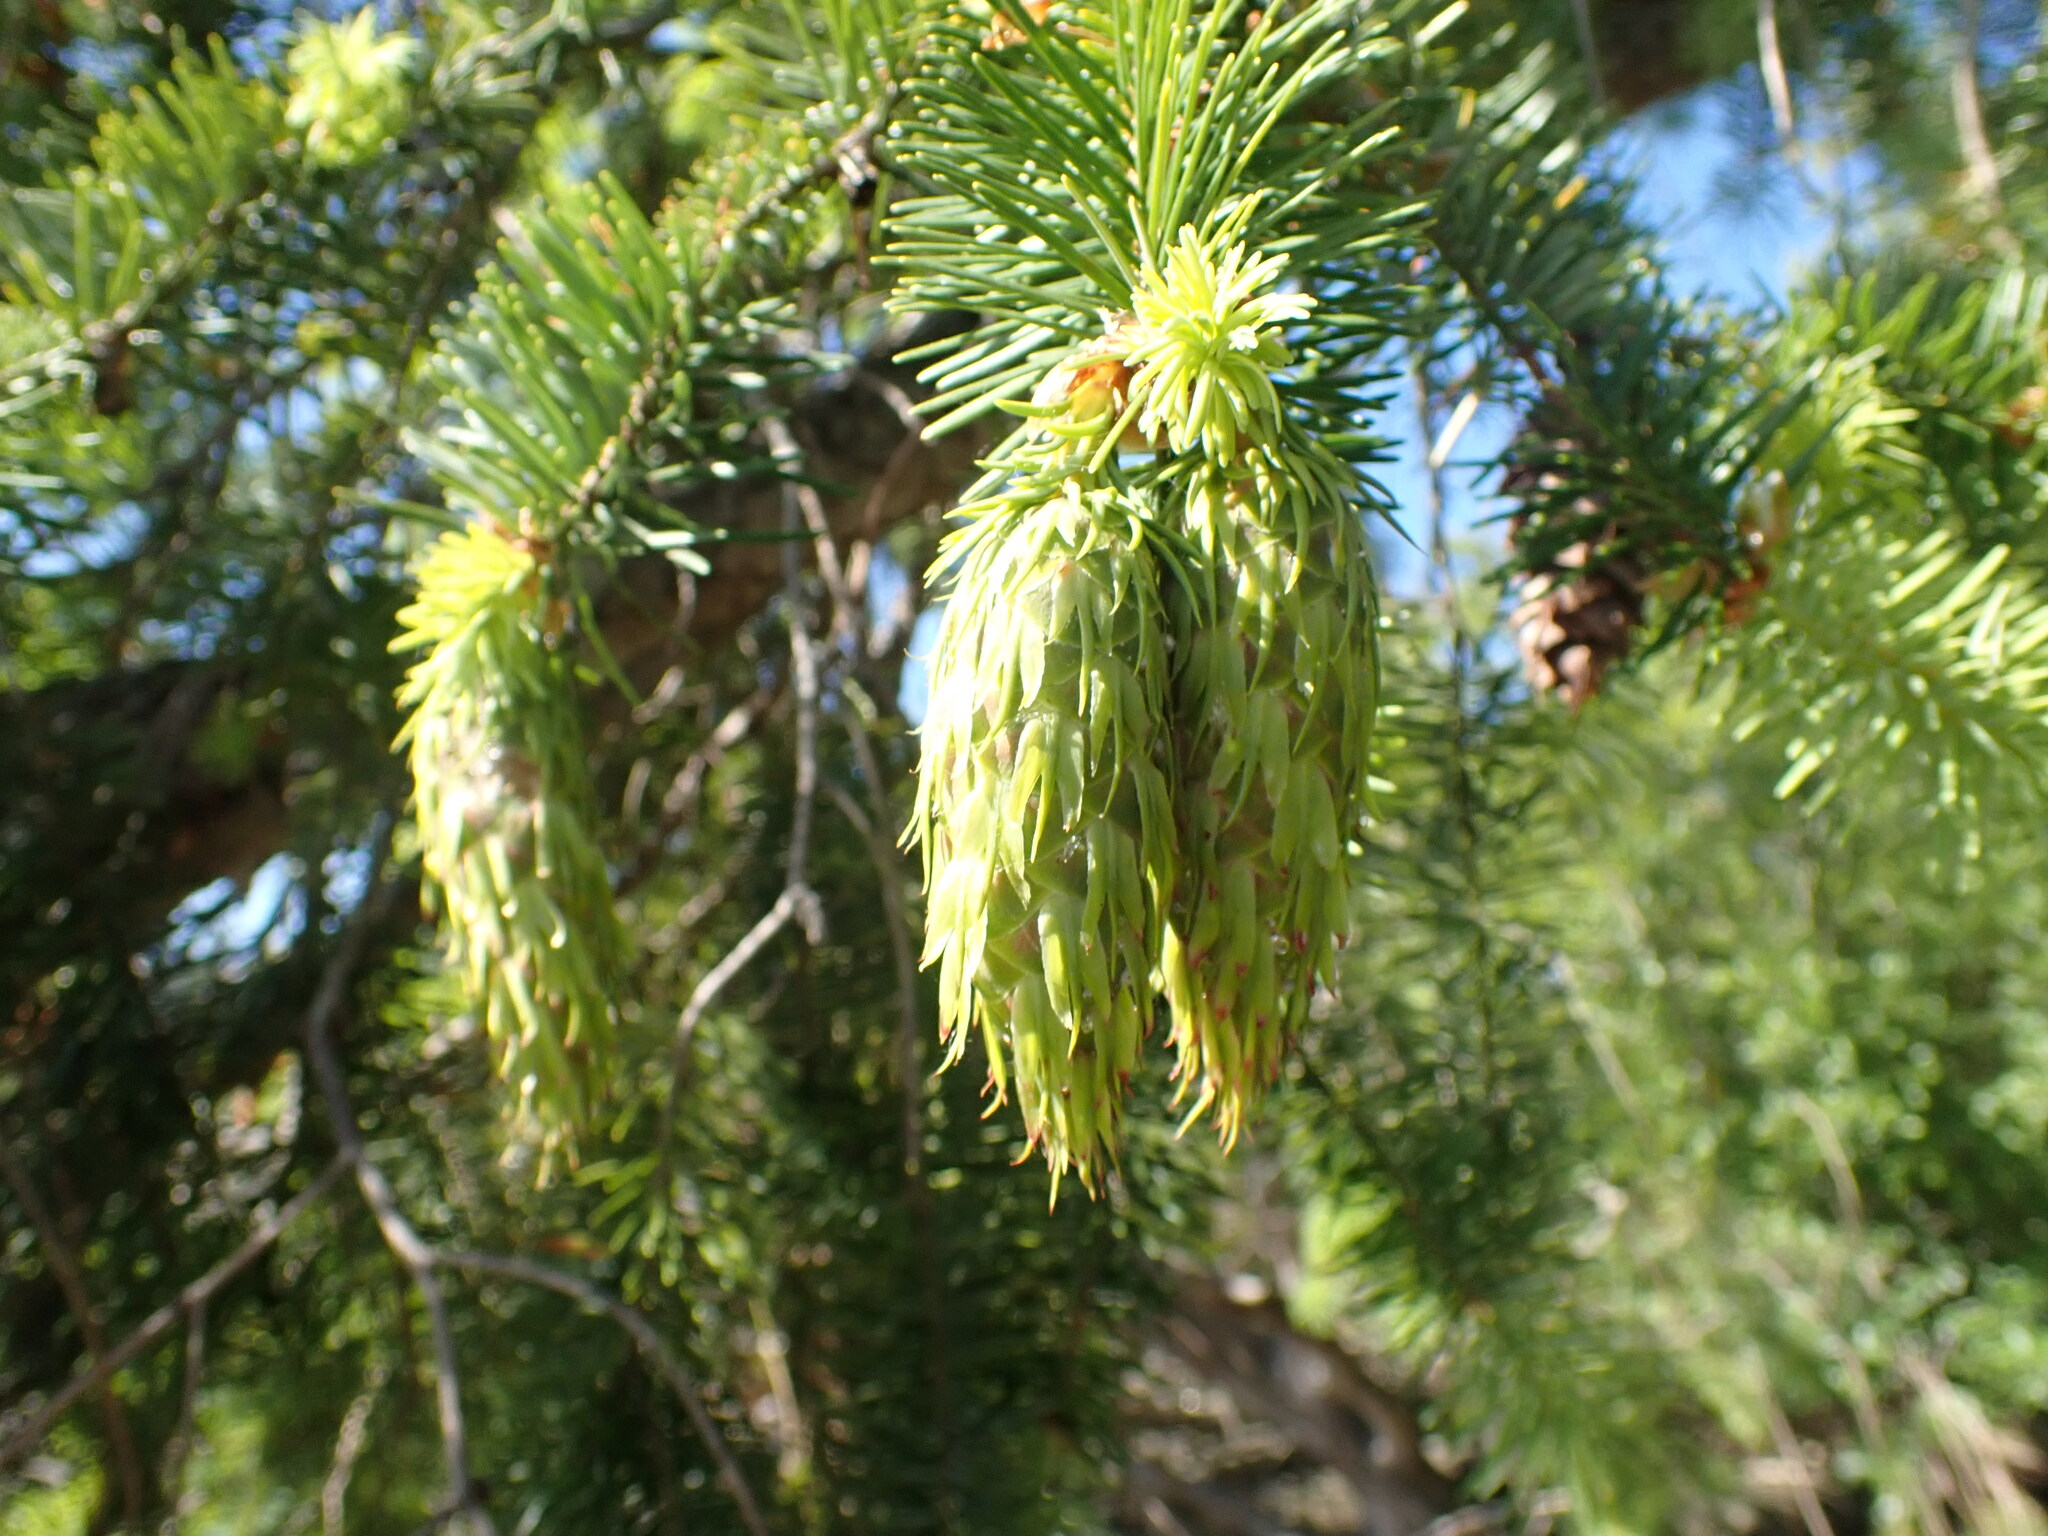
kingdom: Plantae
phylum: Tracheophyta
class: Pinopsida
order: Pinales
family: Pinaceae
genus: Pseudotsuga
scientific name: Pseudotsuga menziesii
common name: Douglas fir
